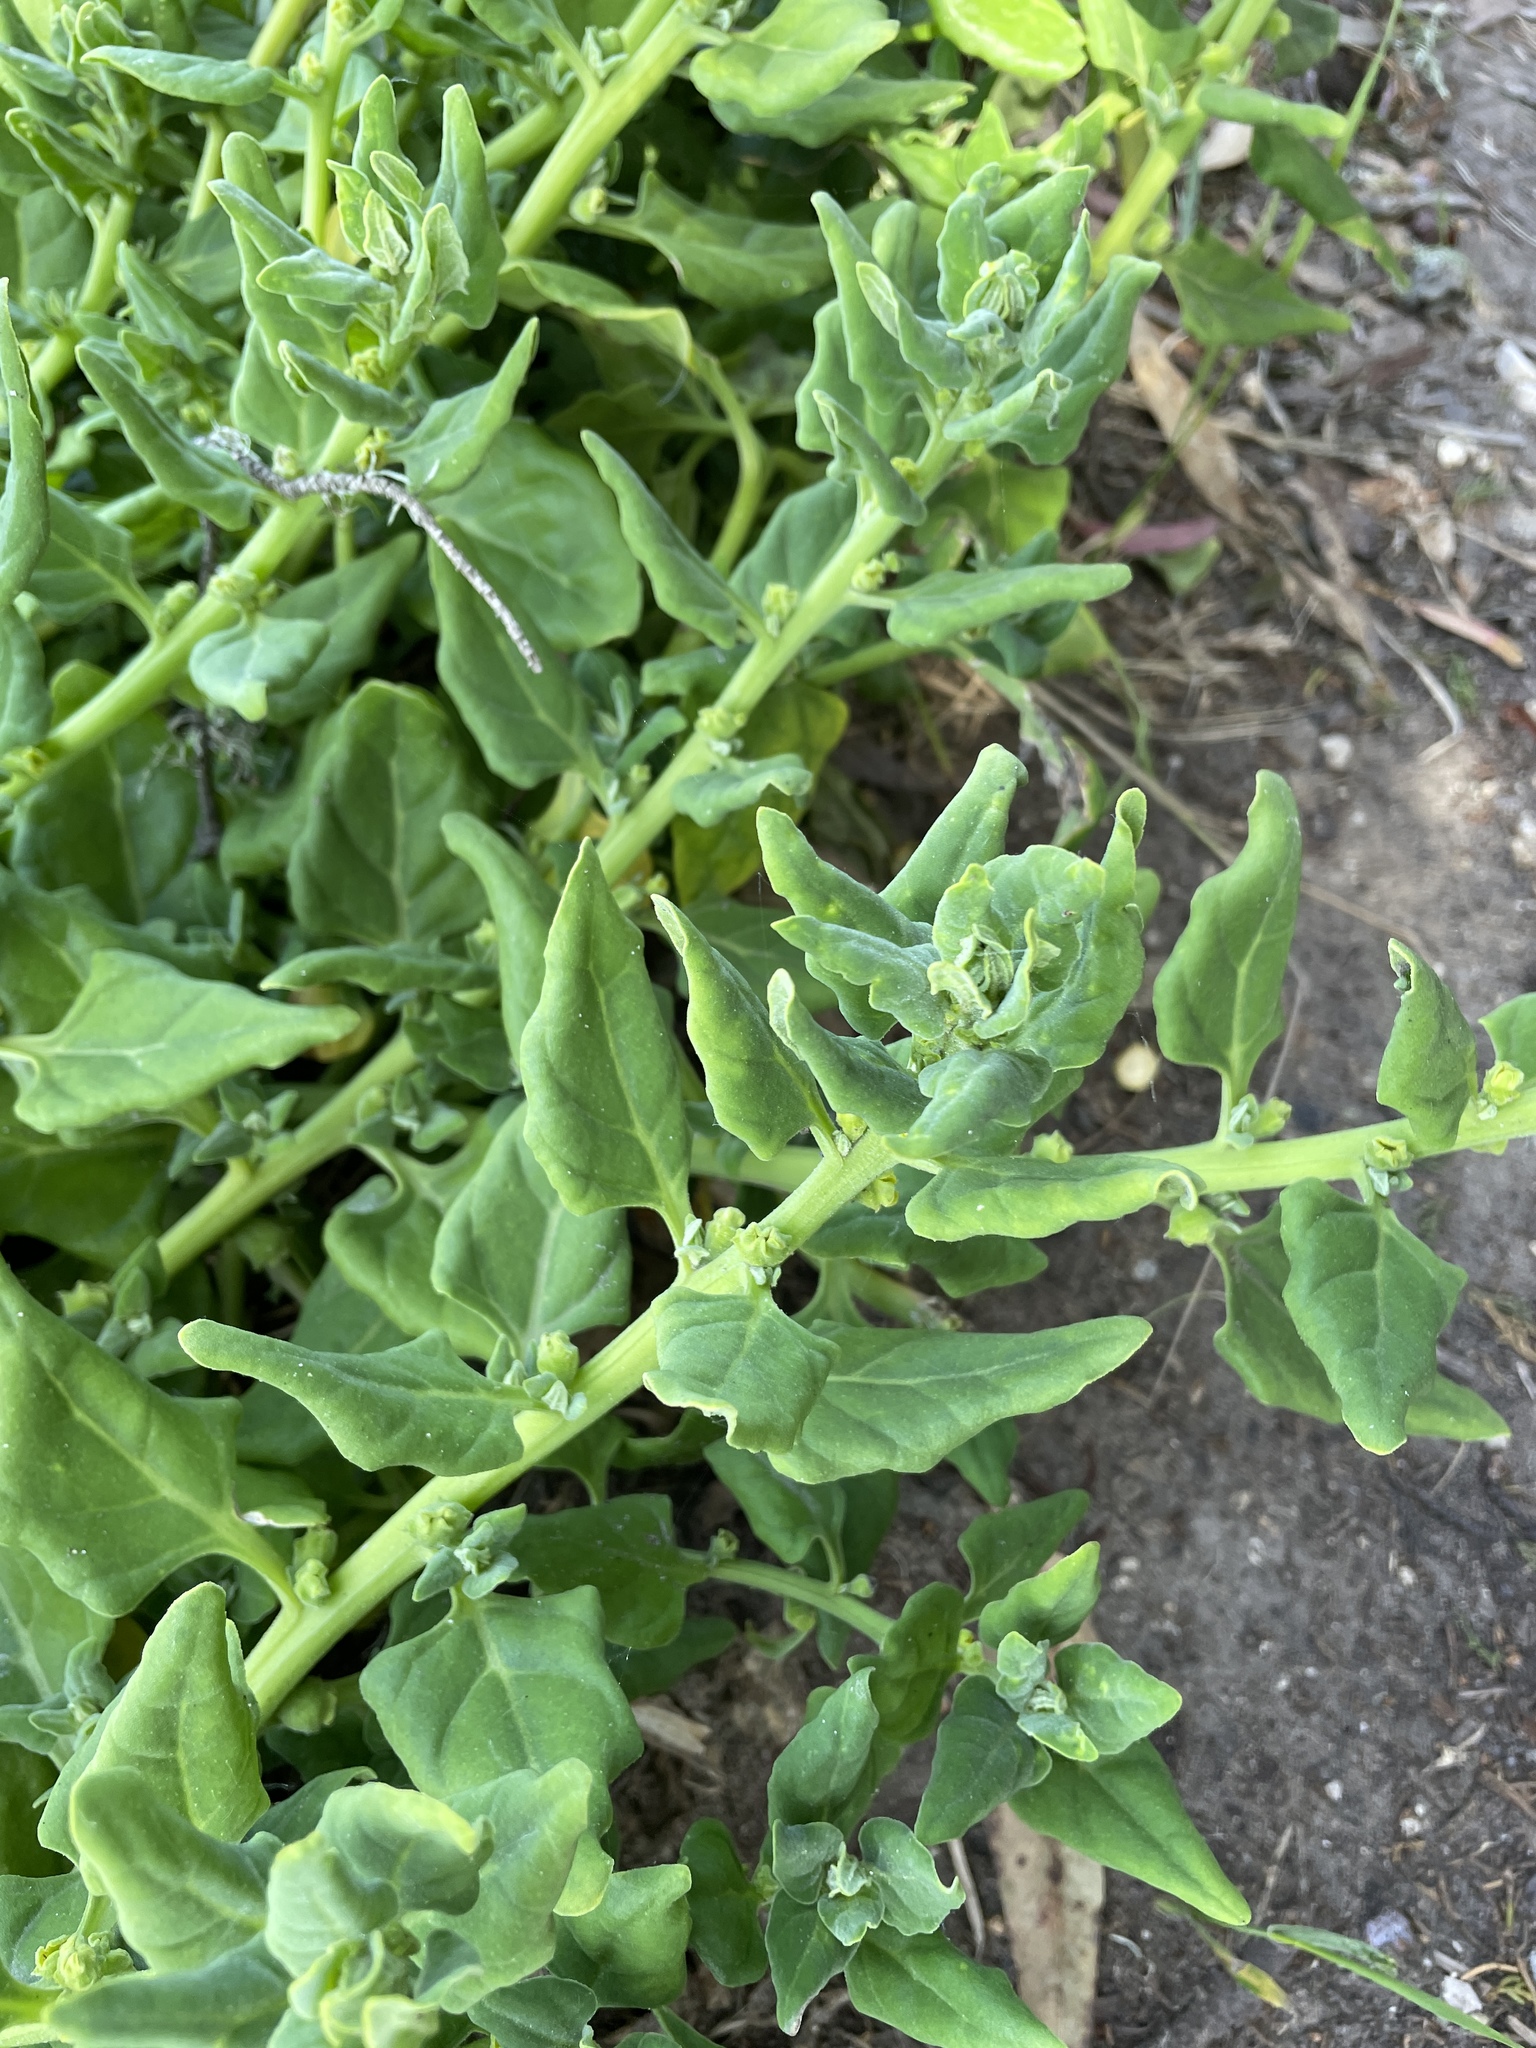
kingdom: Plantae
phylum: Tracheophyta
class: Magnoliopsida
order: Caryophyllales
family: Aizoaceae
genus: Tetragonia
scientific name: Tetragonia tetragonoides
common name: New zealand-spinach
